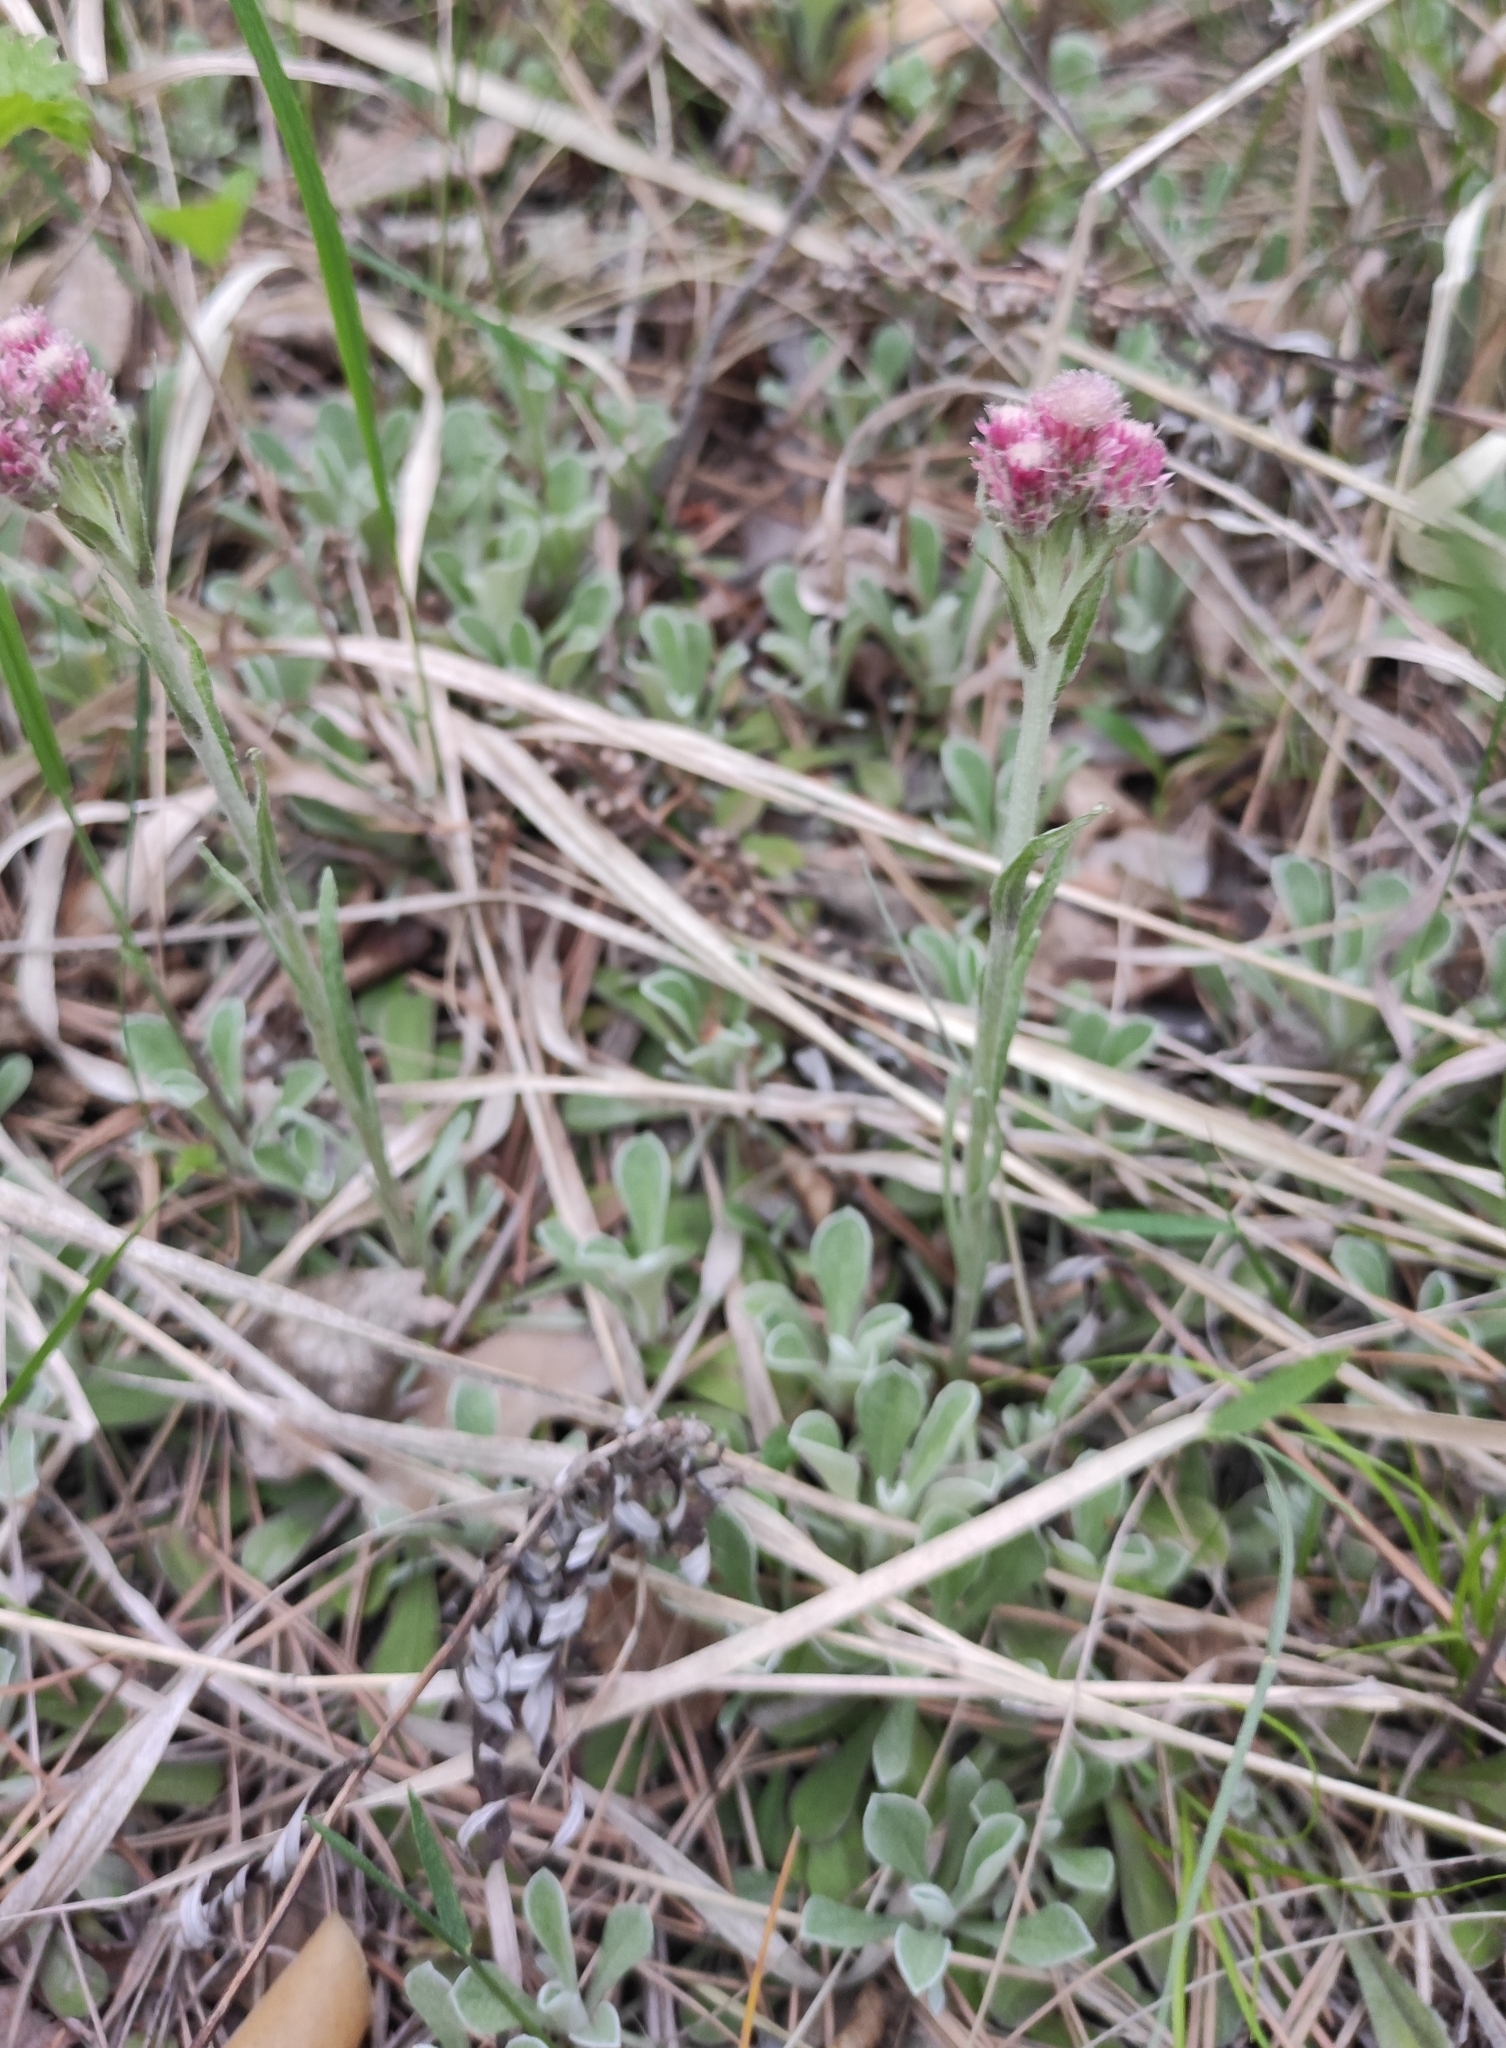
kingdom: Plantae
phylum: Tracheophyta
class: Magnoliopsida
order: Asterales
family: Asteraceae
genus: Antennaria
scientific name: Antennaria dioica
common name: Mountain everlasting
